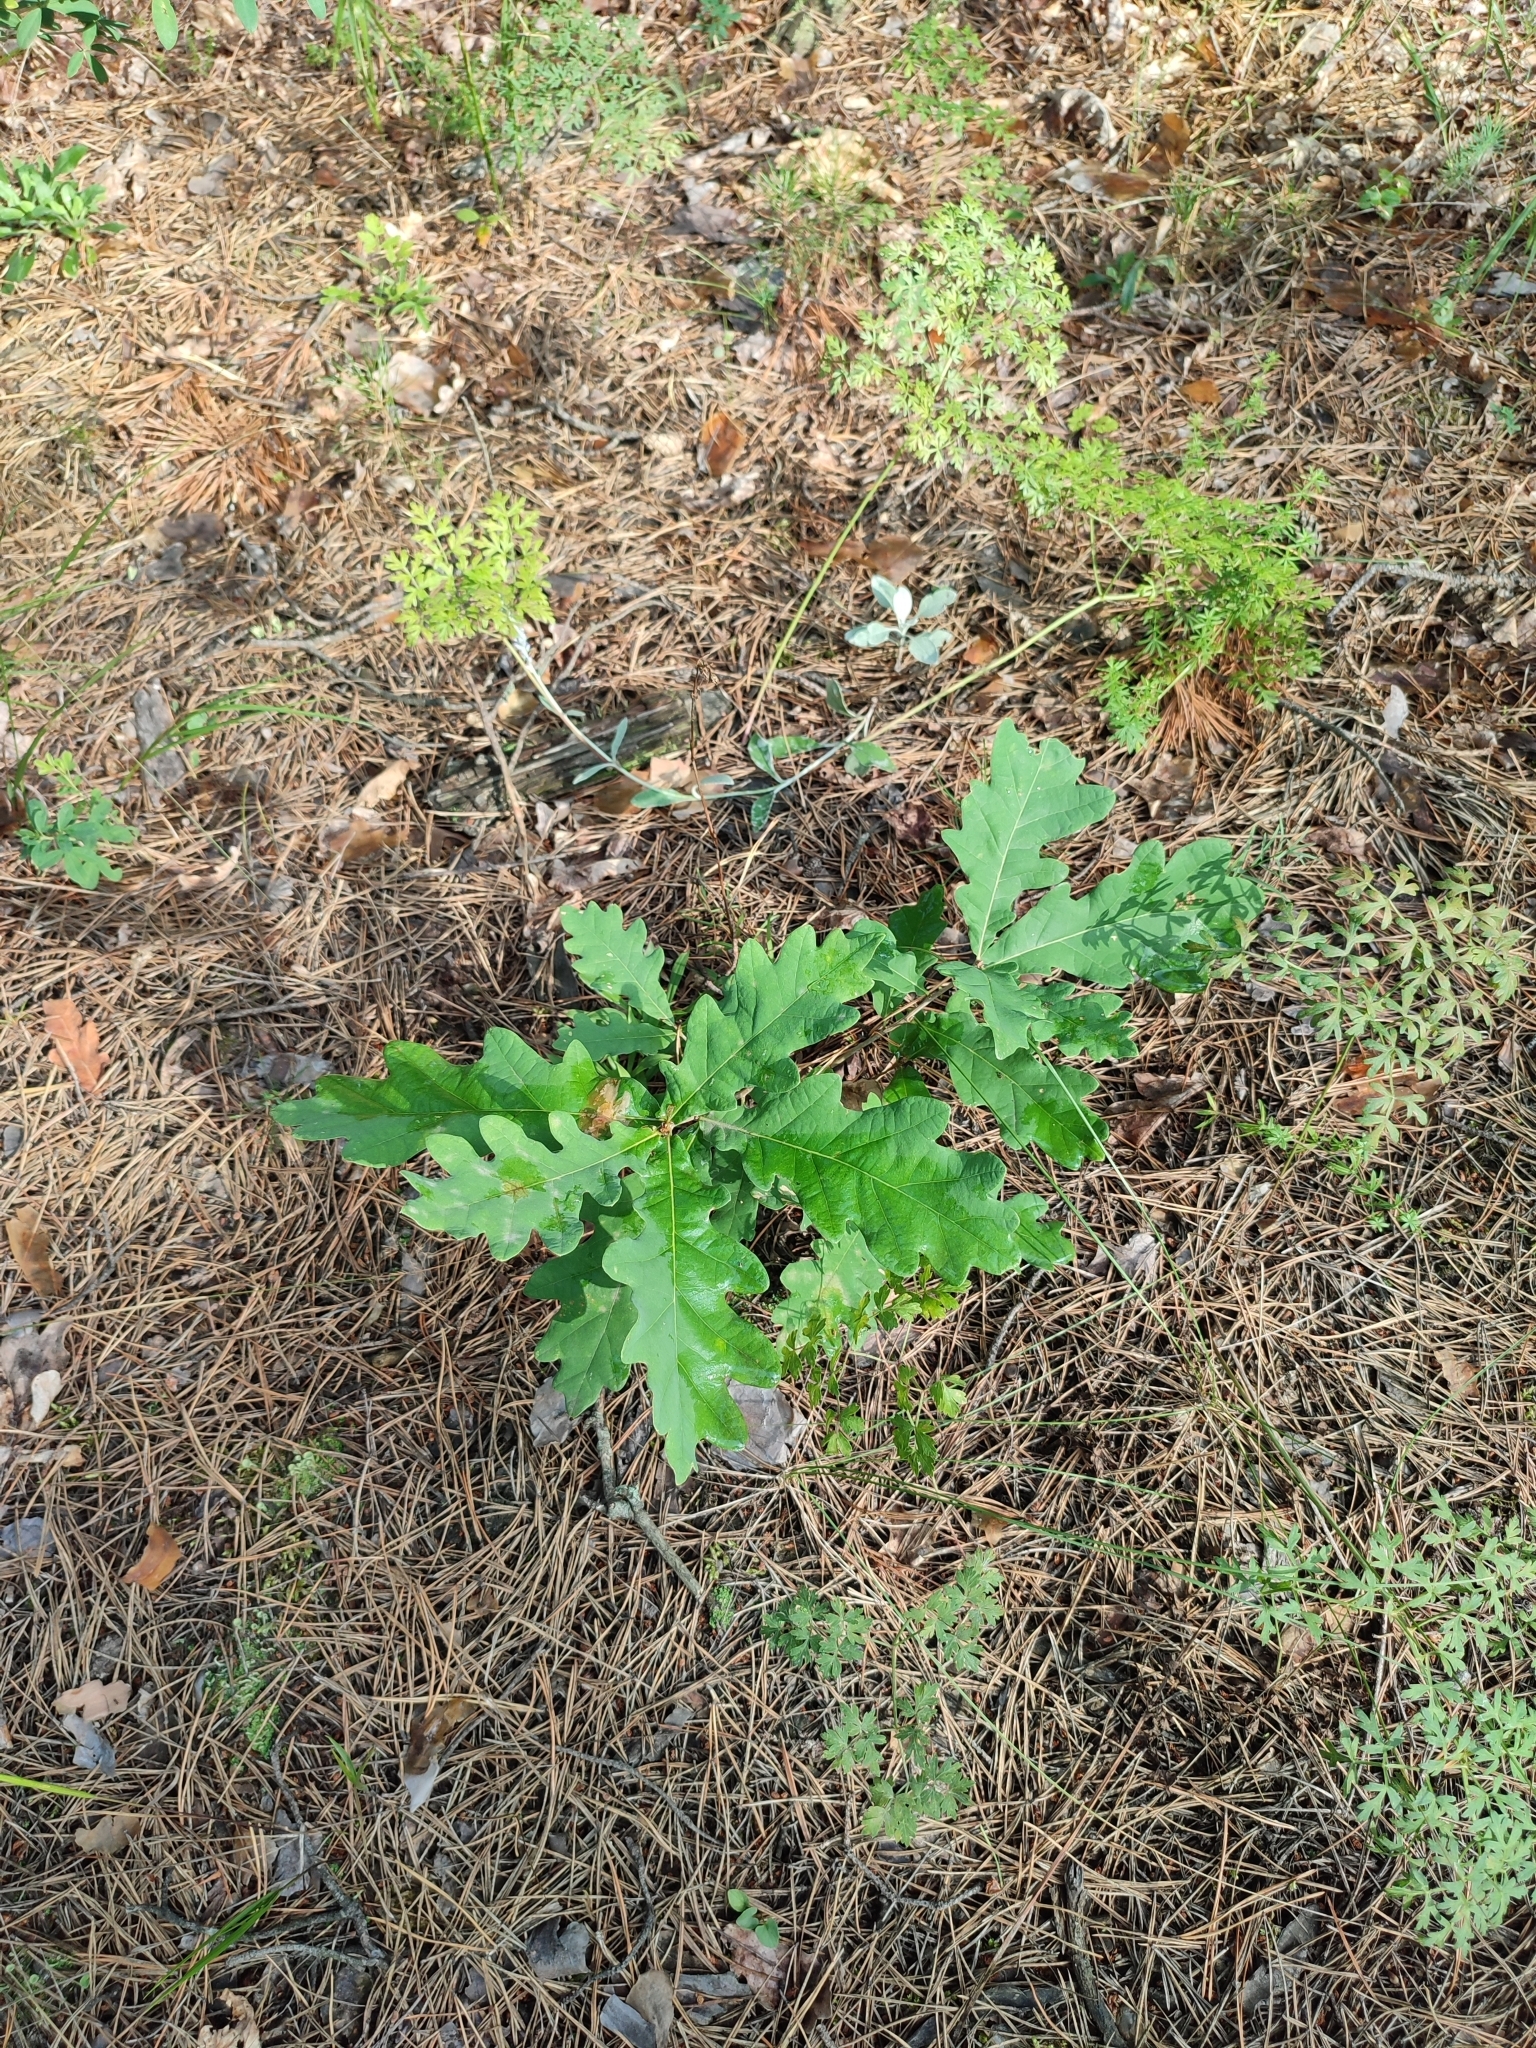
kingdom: Plantae
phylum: Tracheophyta
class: Magnoliopsida
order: Fagales
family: Fagaceae
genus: Quercus
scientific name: Quercus robur
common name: Pedunculate oak
